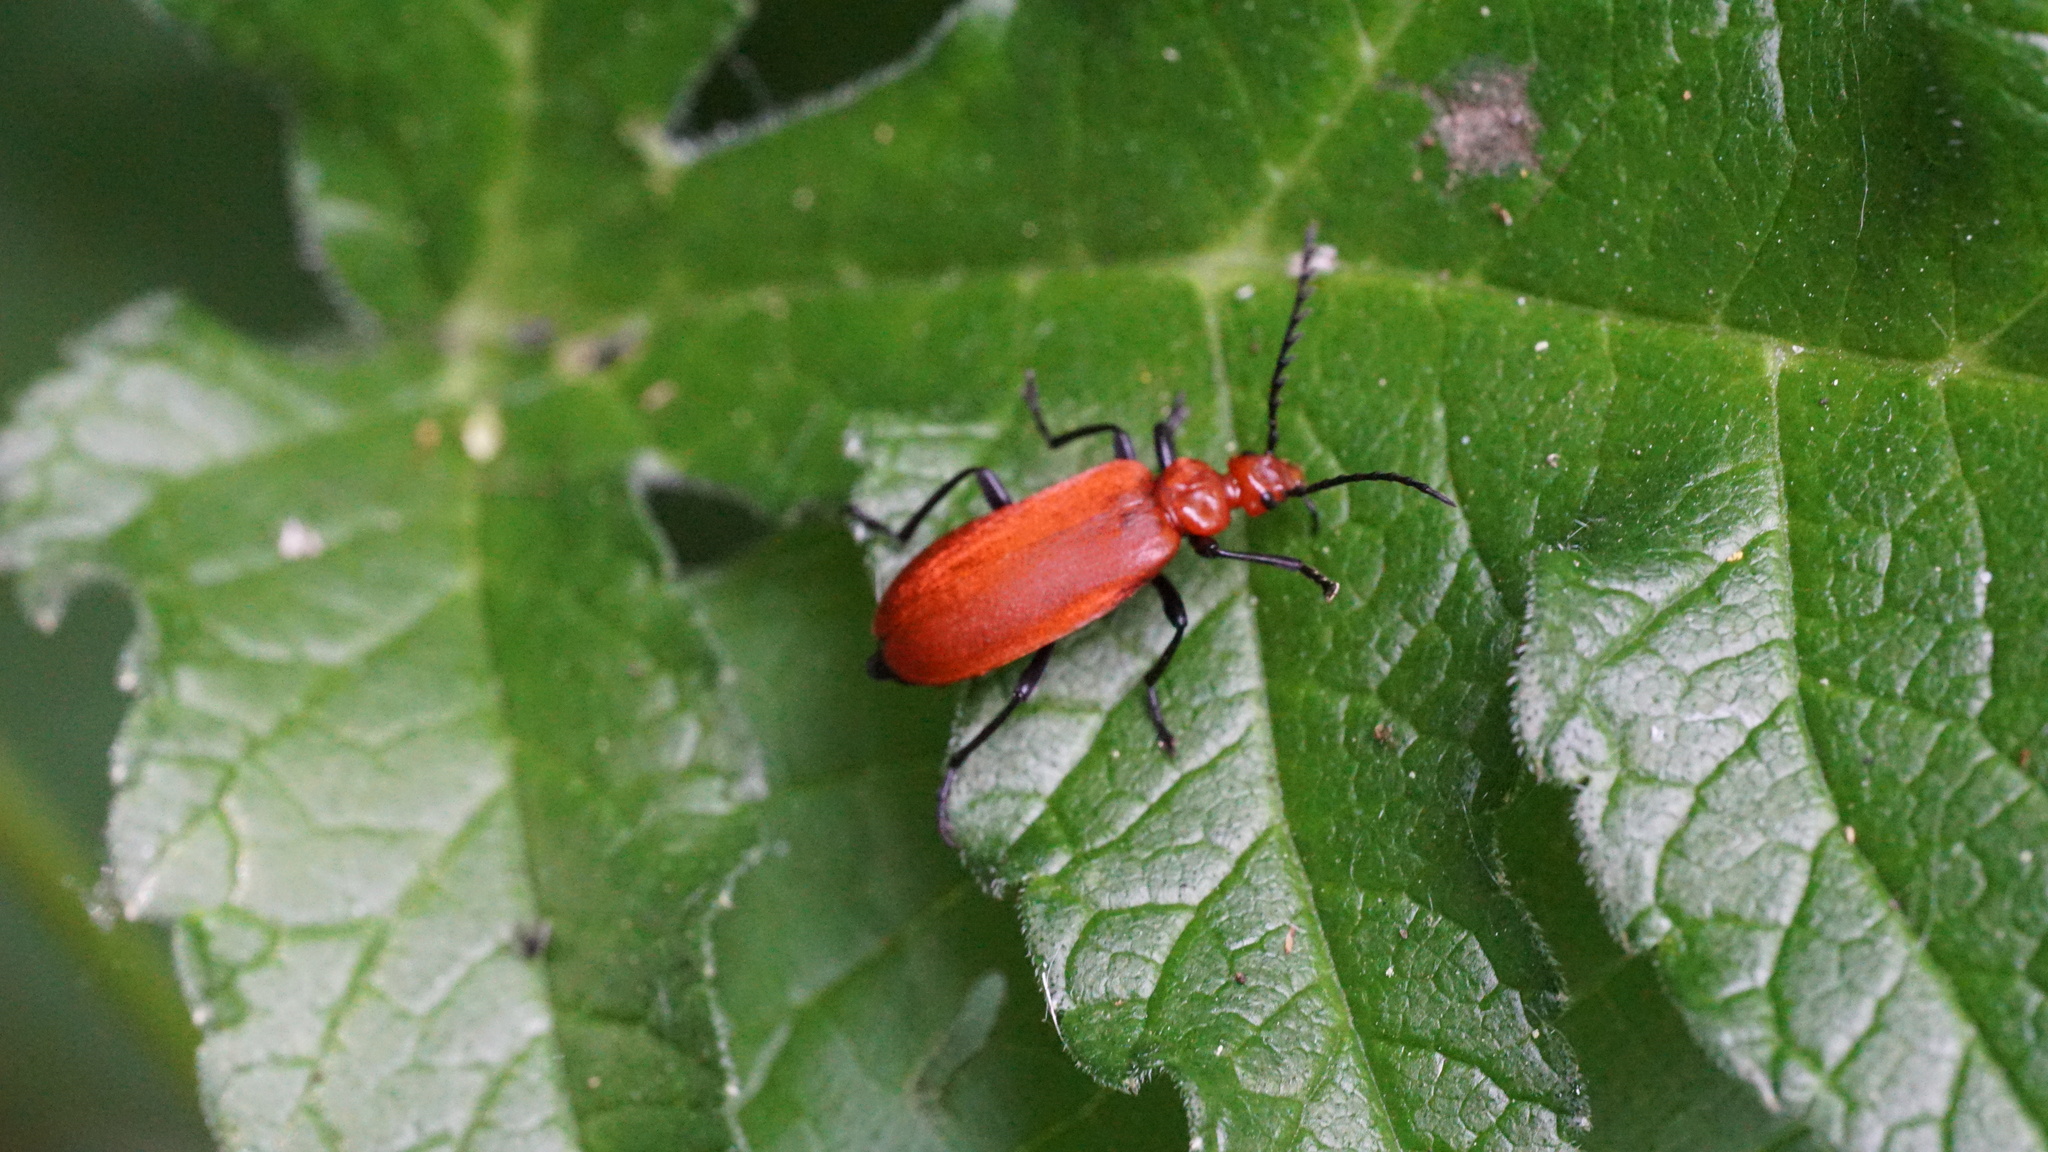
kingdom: Animalia
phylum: Arthropoda
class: Insecta
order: Coleoptera
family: Pyrochroidae
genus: Pyrochroa
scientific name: Pyrochroa serraticornis
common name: Red-headed cardinal beetle
